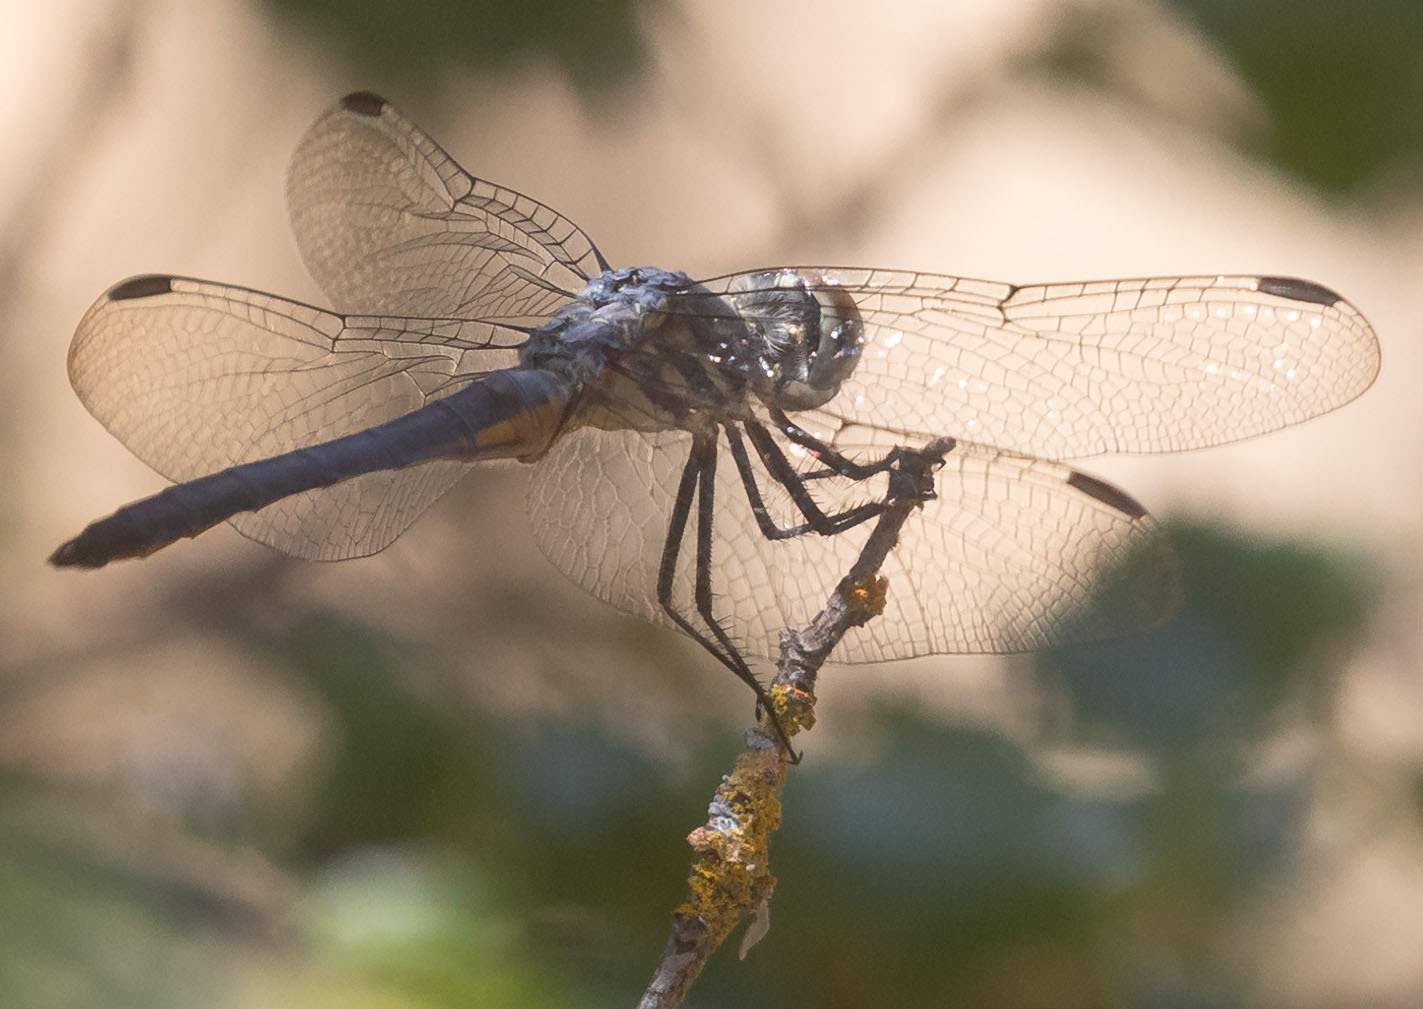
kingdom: Animalia
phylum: Arthropoda
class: Insecta
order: Odonata
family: Libellulidae
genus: Pachydiplax
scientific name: Pachydiplax longipennis
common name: Blue dasher
